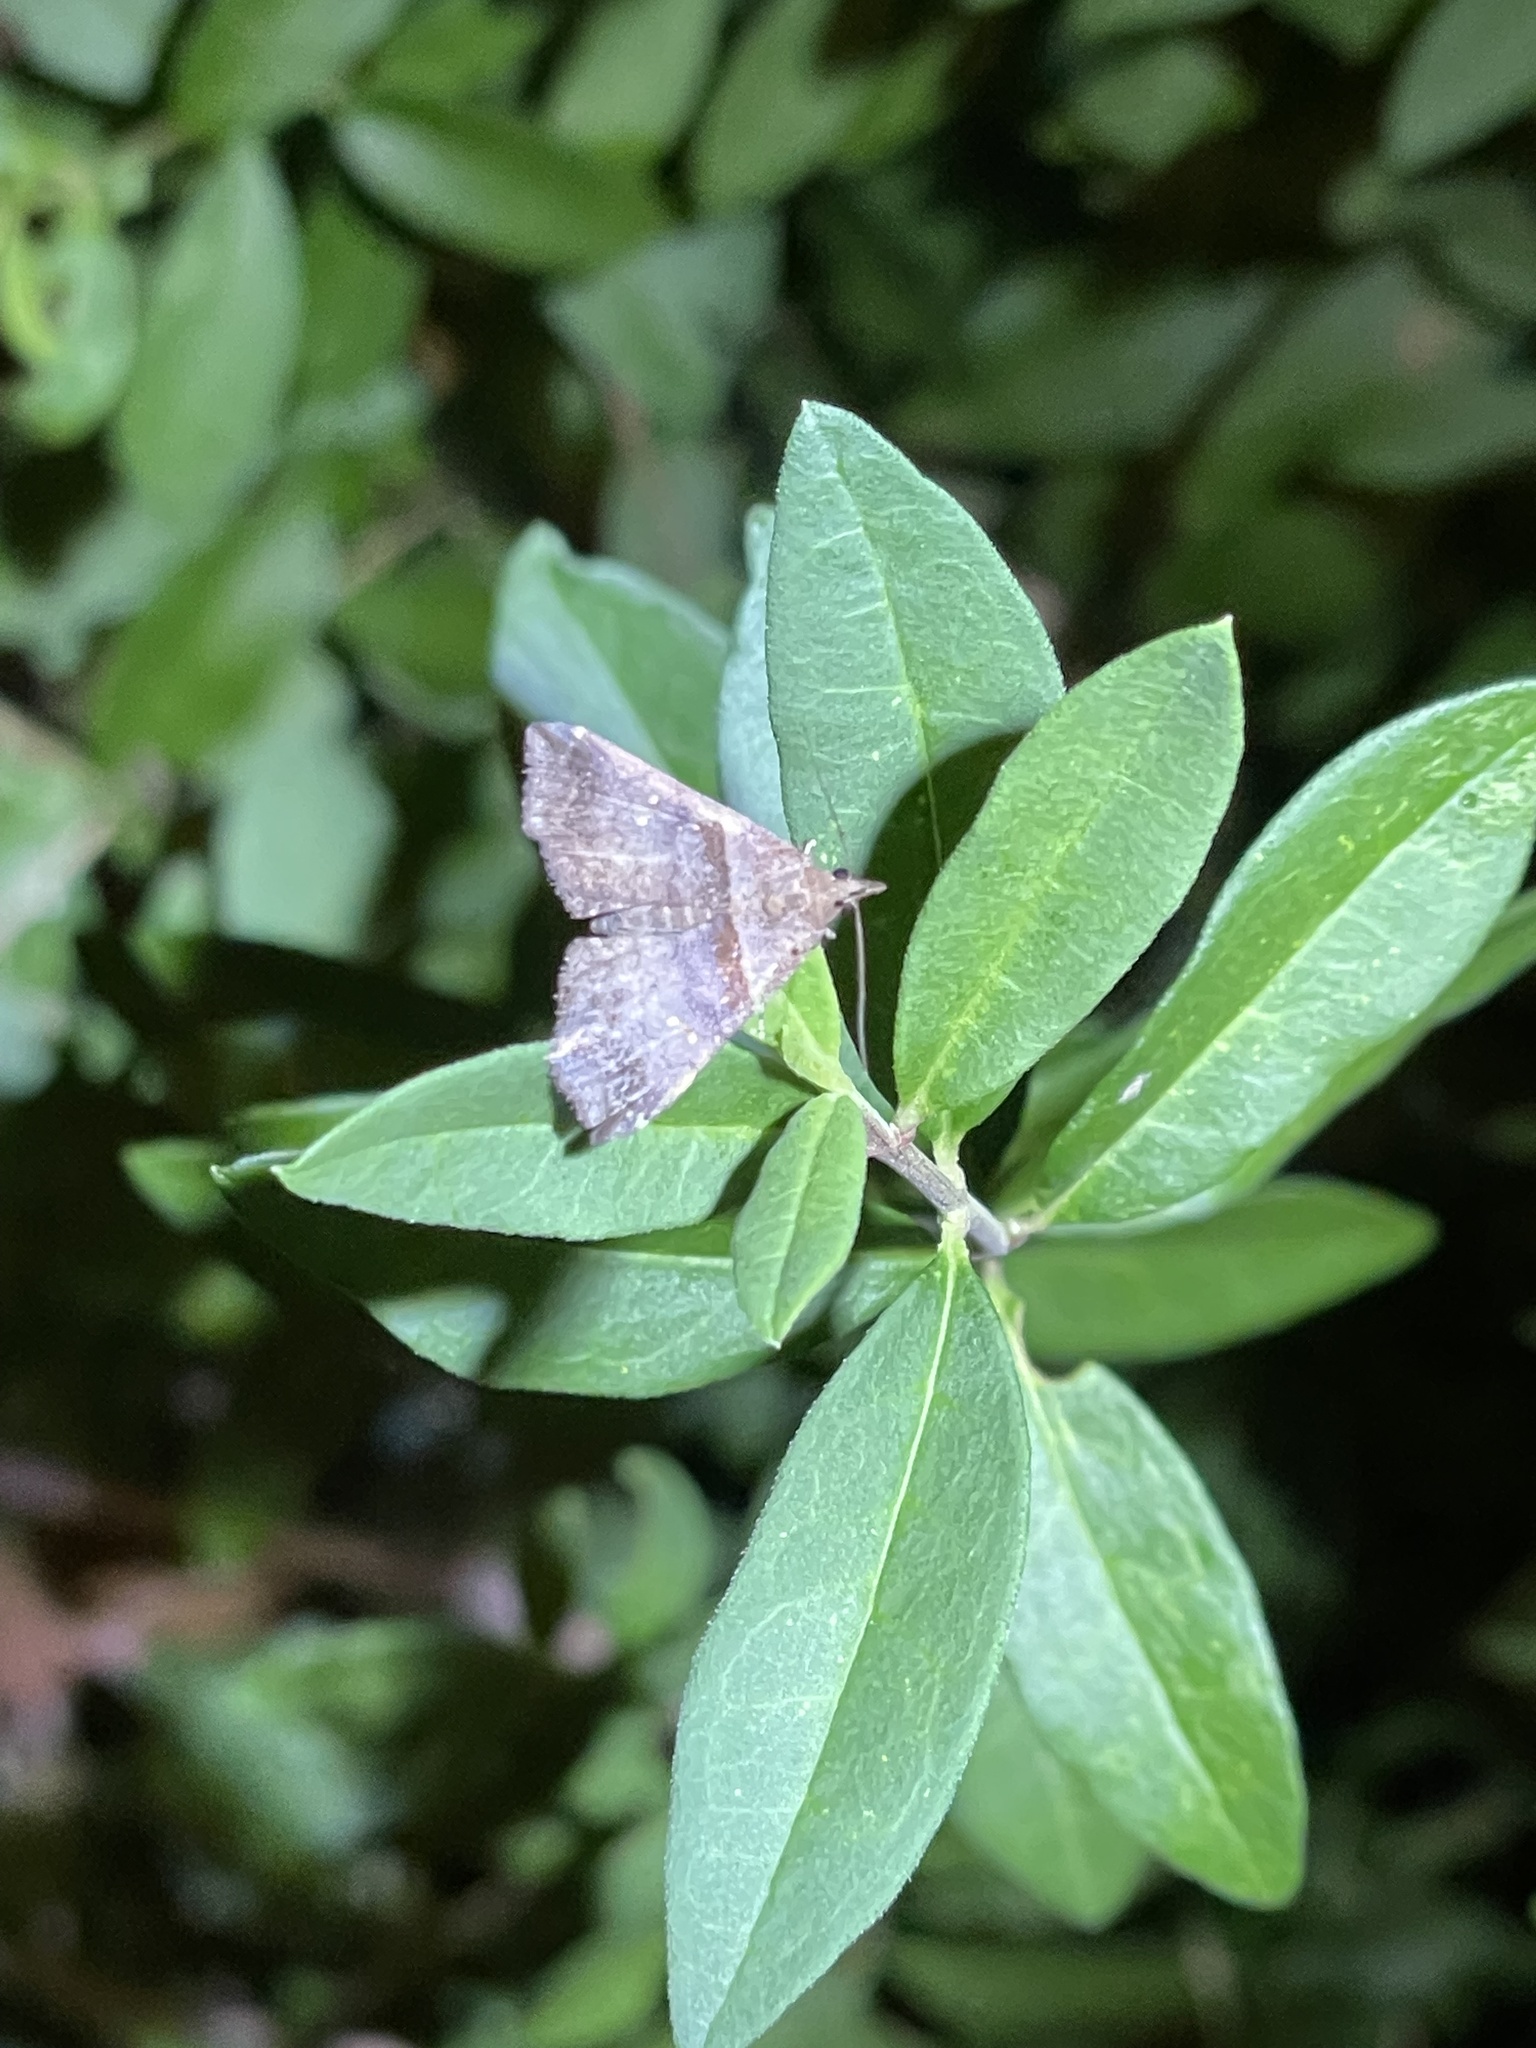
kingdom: Animalia
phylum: Arthropoda
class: Insecta
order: Lepidoptera
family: Erebidae
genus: Lascoria
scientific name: Lascoria ambigualis
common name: Ambiguous moth
